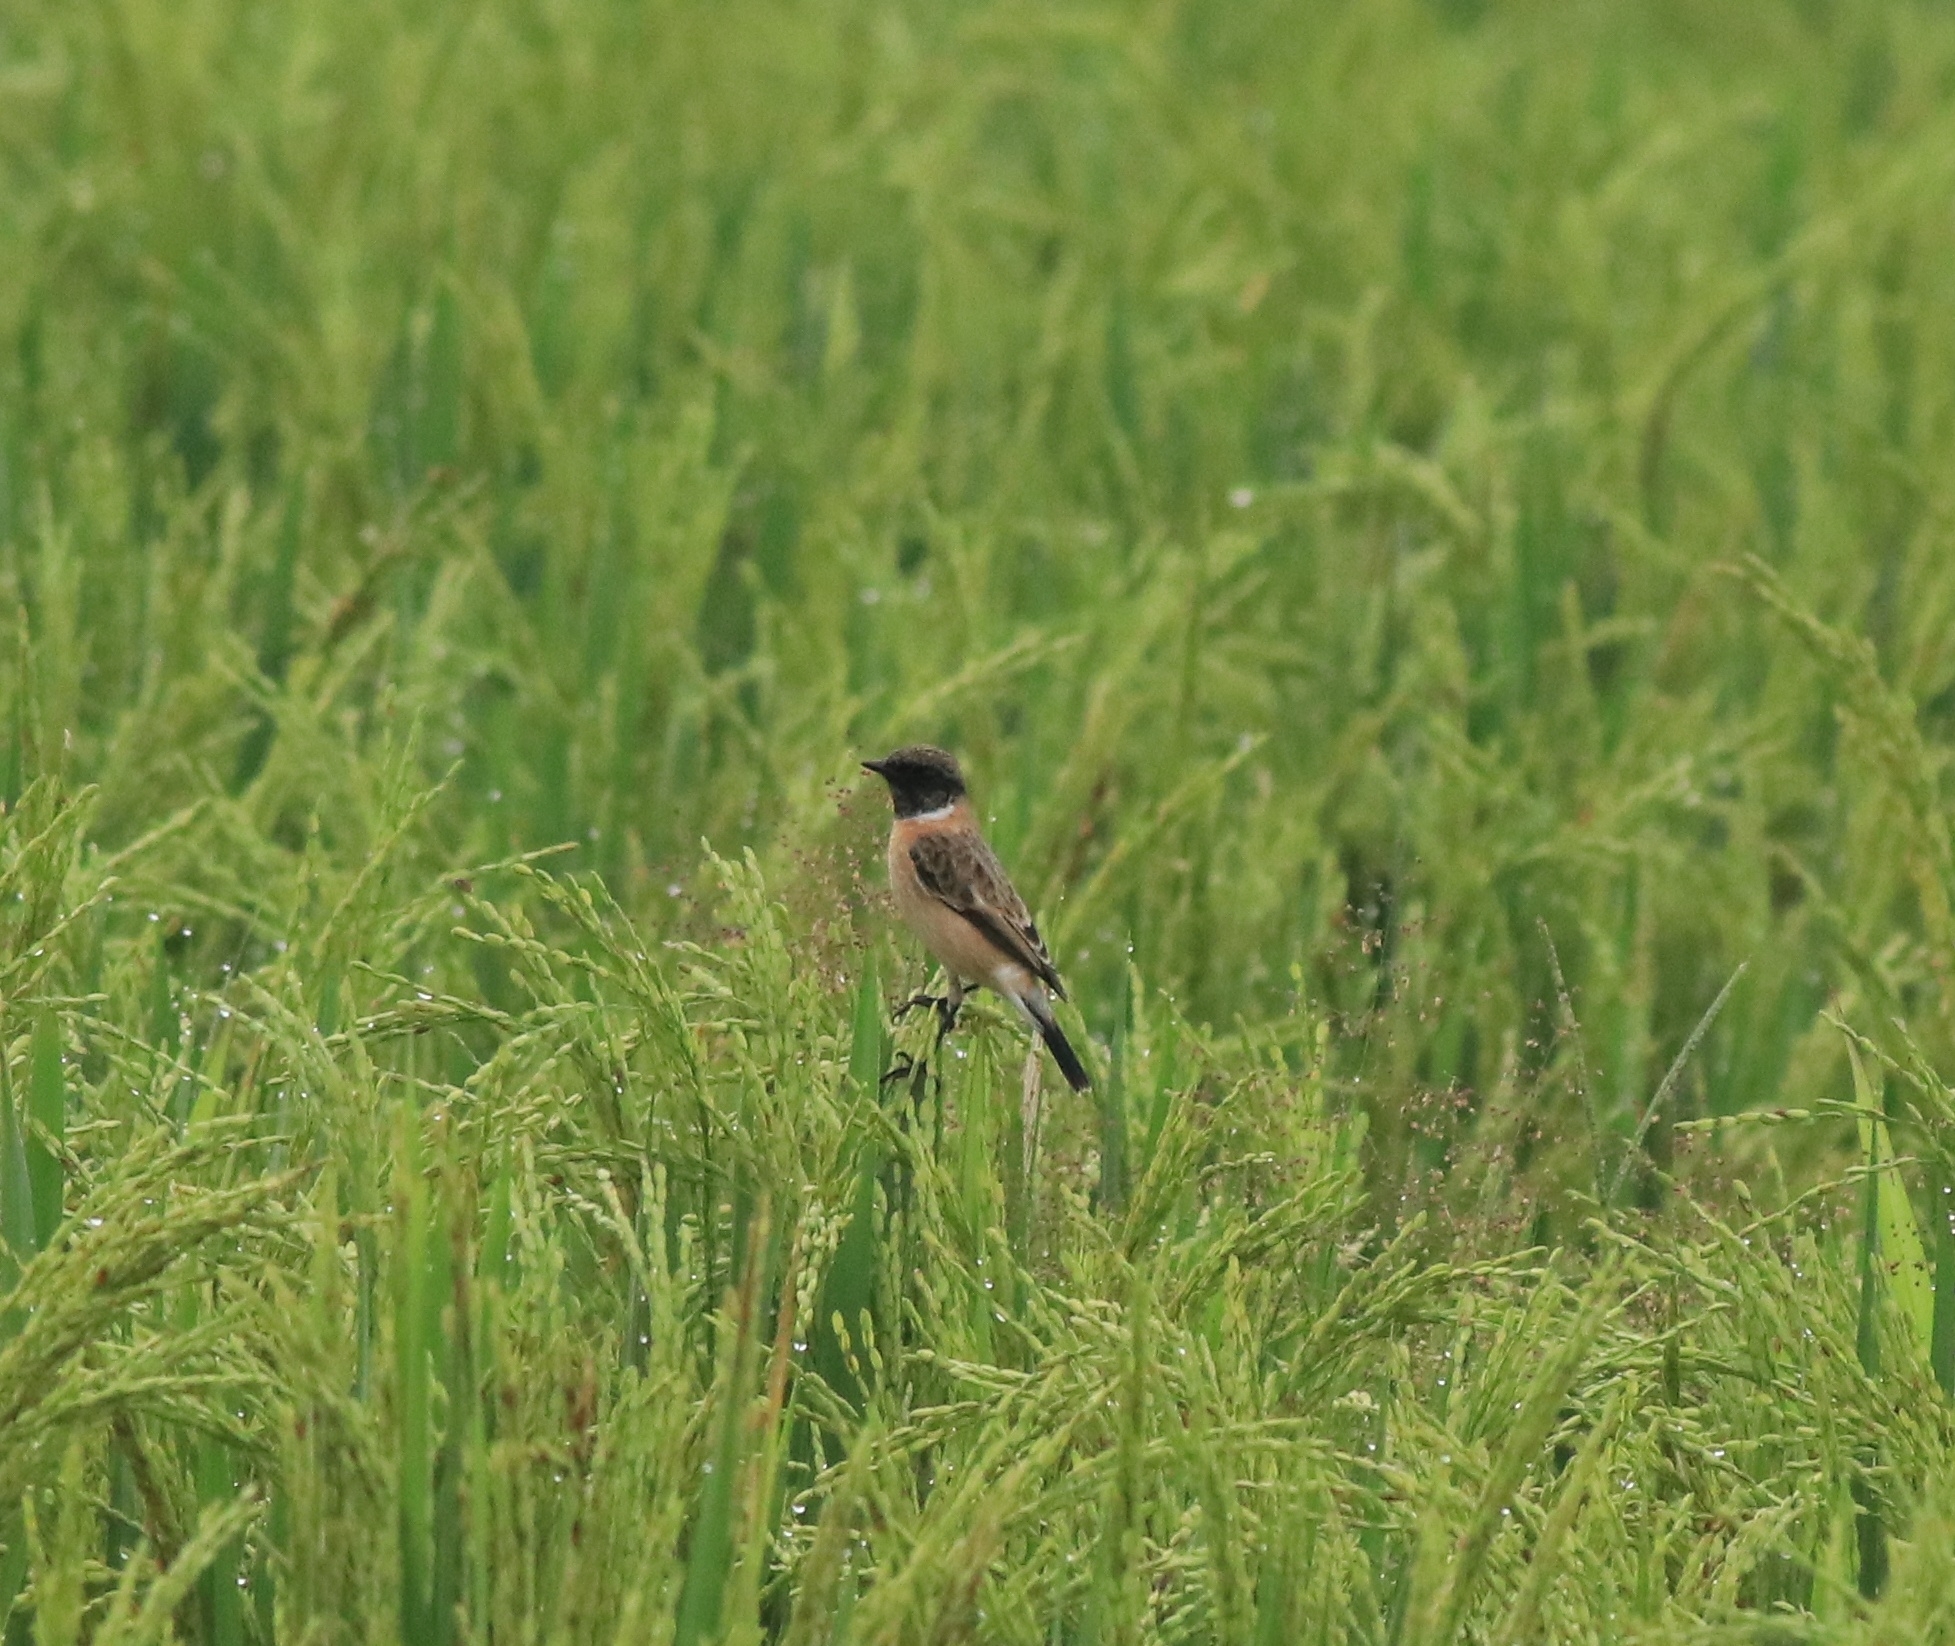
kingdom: Animalia
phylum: Chordata
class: Aves
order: Passeriformes
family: Muscicapidae
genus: Saxicola
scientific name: Saxicola maurus
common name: Siberian stonechat
